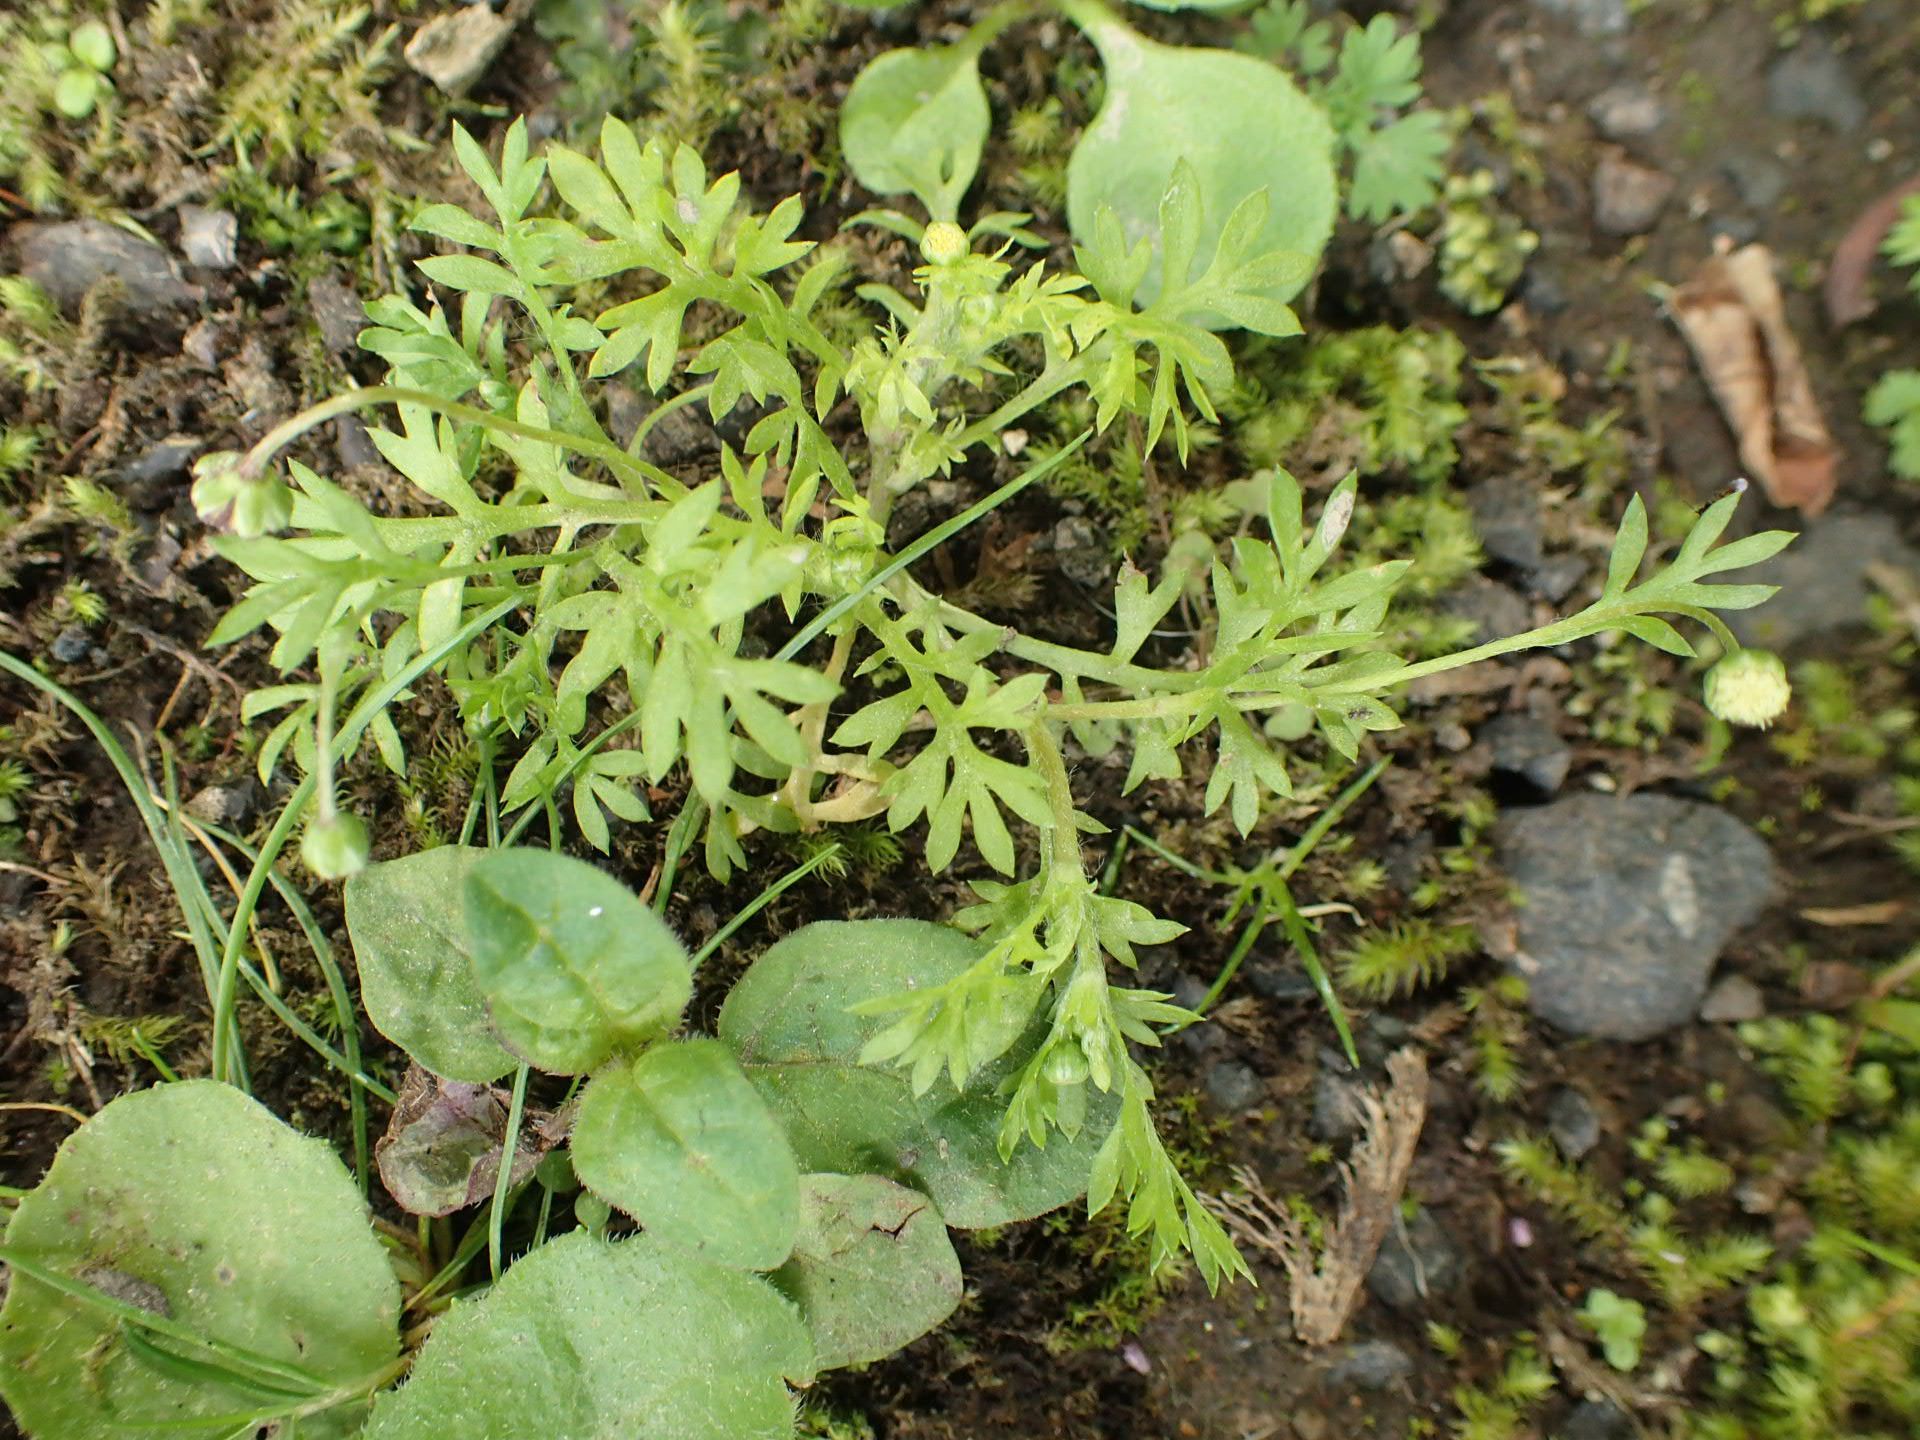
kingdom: Plantae
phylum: Tracheophyta
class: Magnoliopsida
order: Asterales
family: Asteraceae
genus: Cotula
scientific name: Cotula australis
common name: Australian waterbuttons
